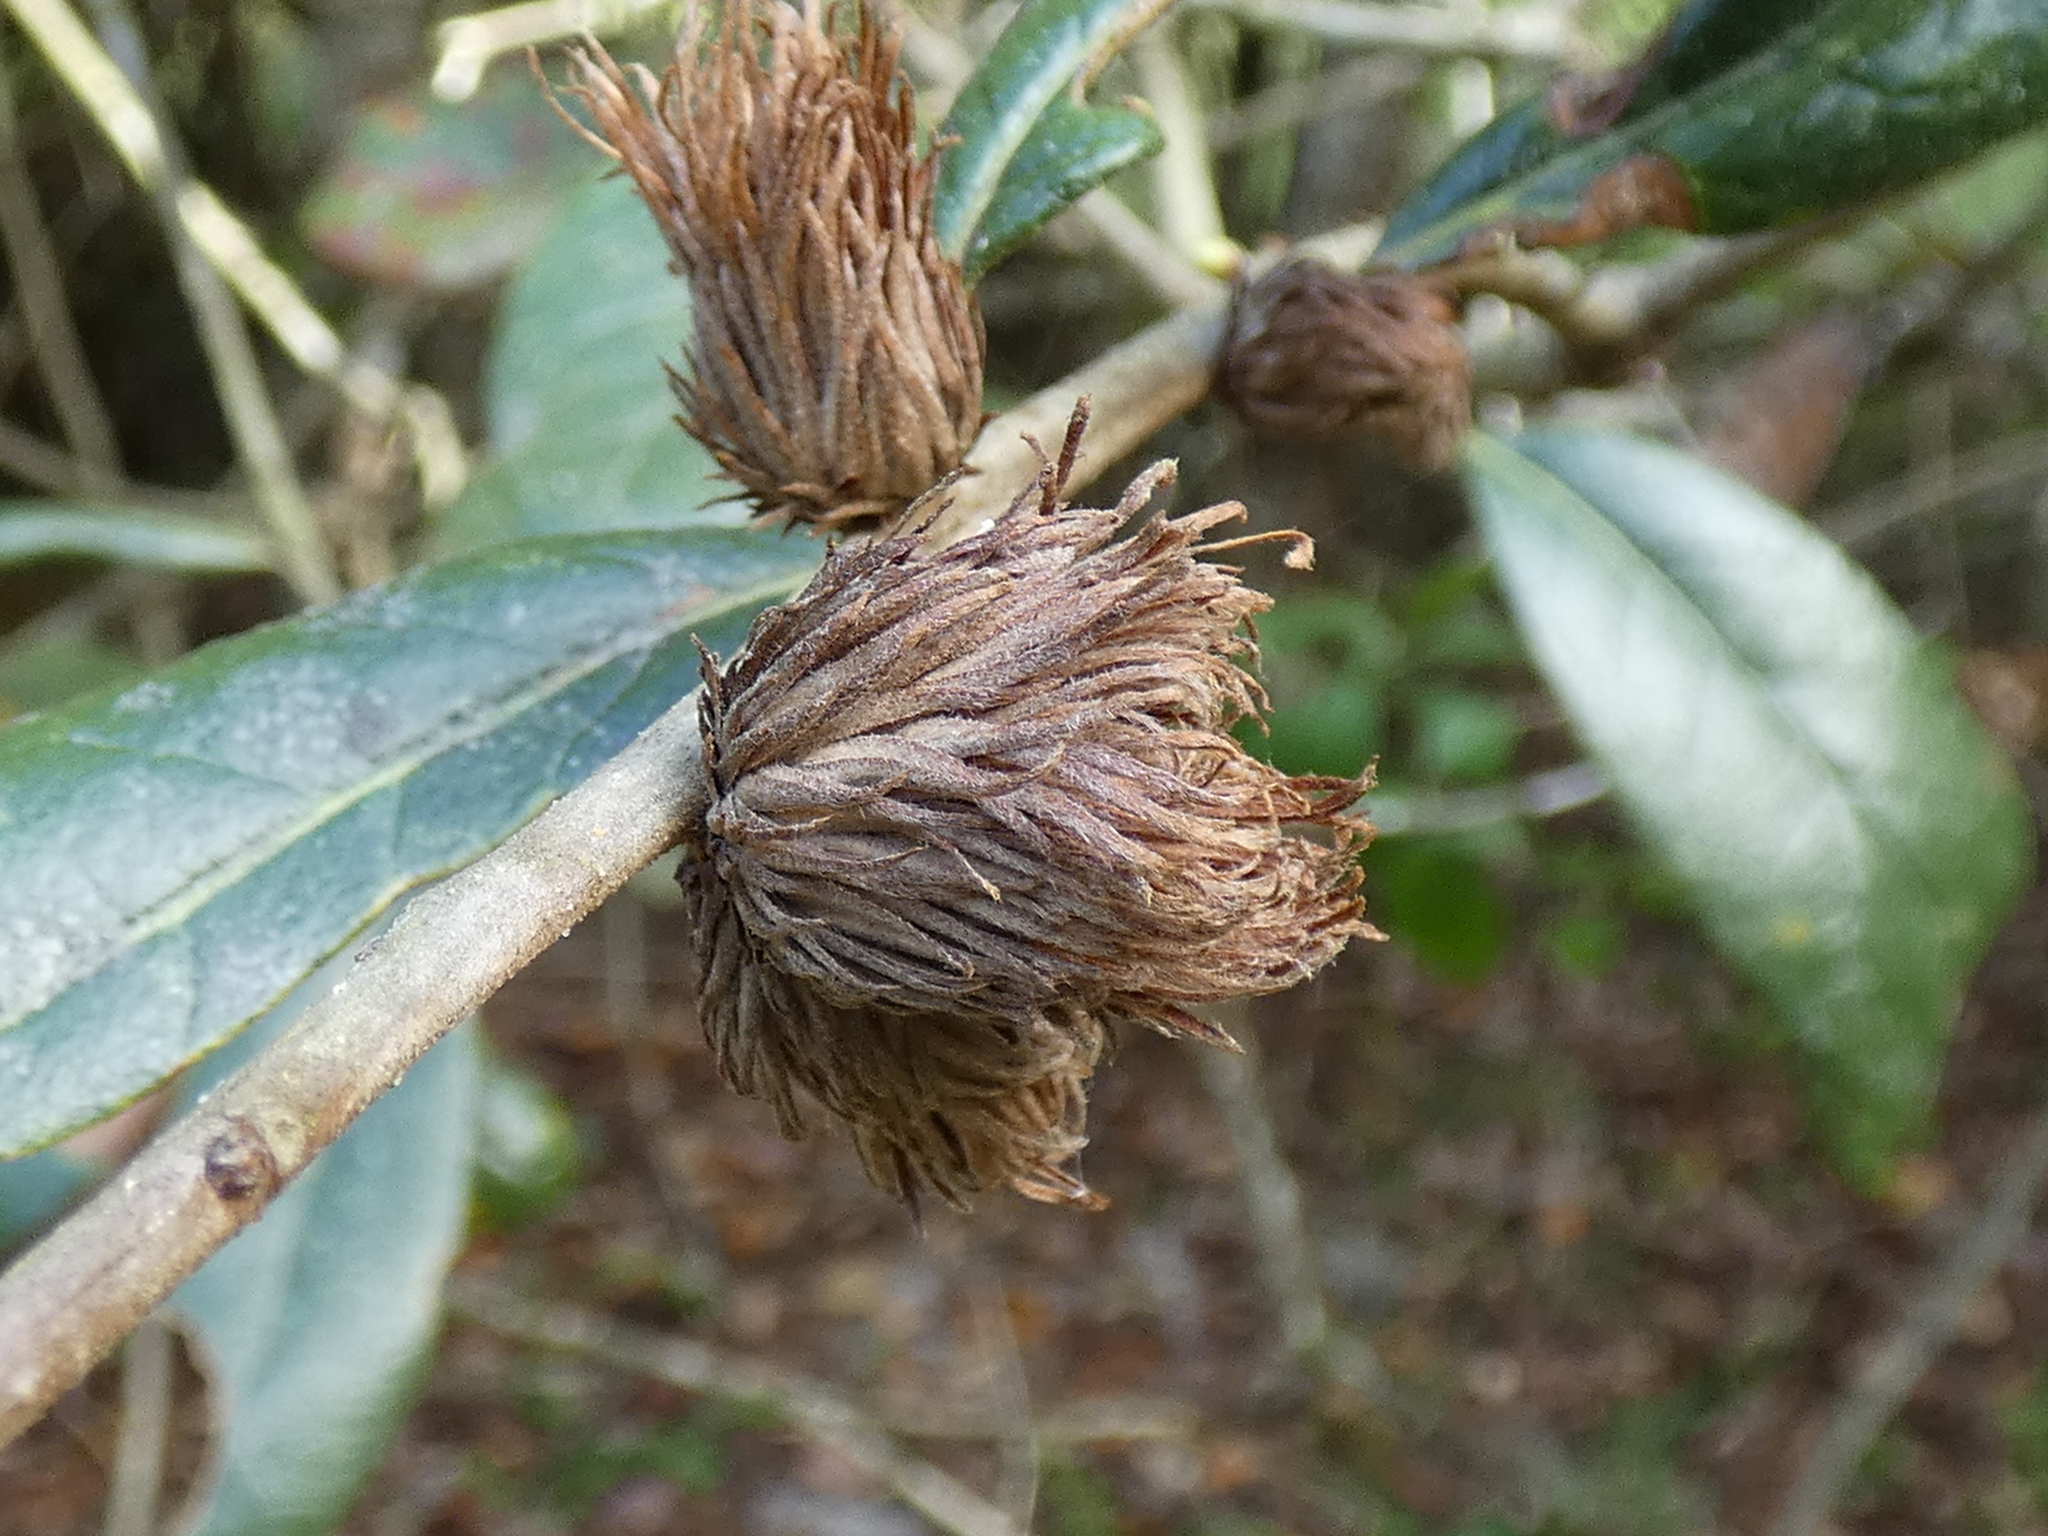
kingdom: Animalia
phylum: Arthropoda
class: Insecta
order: Hymenoptera
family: Cynipidae
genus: Andricus
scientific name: Andricus quercusfoliatus
